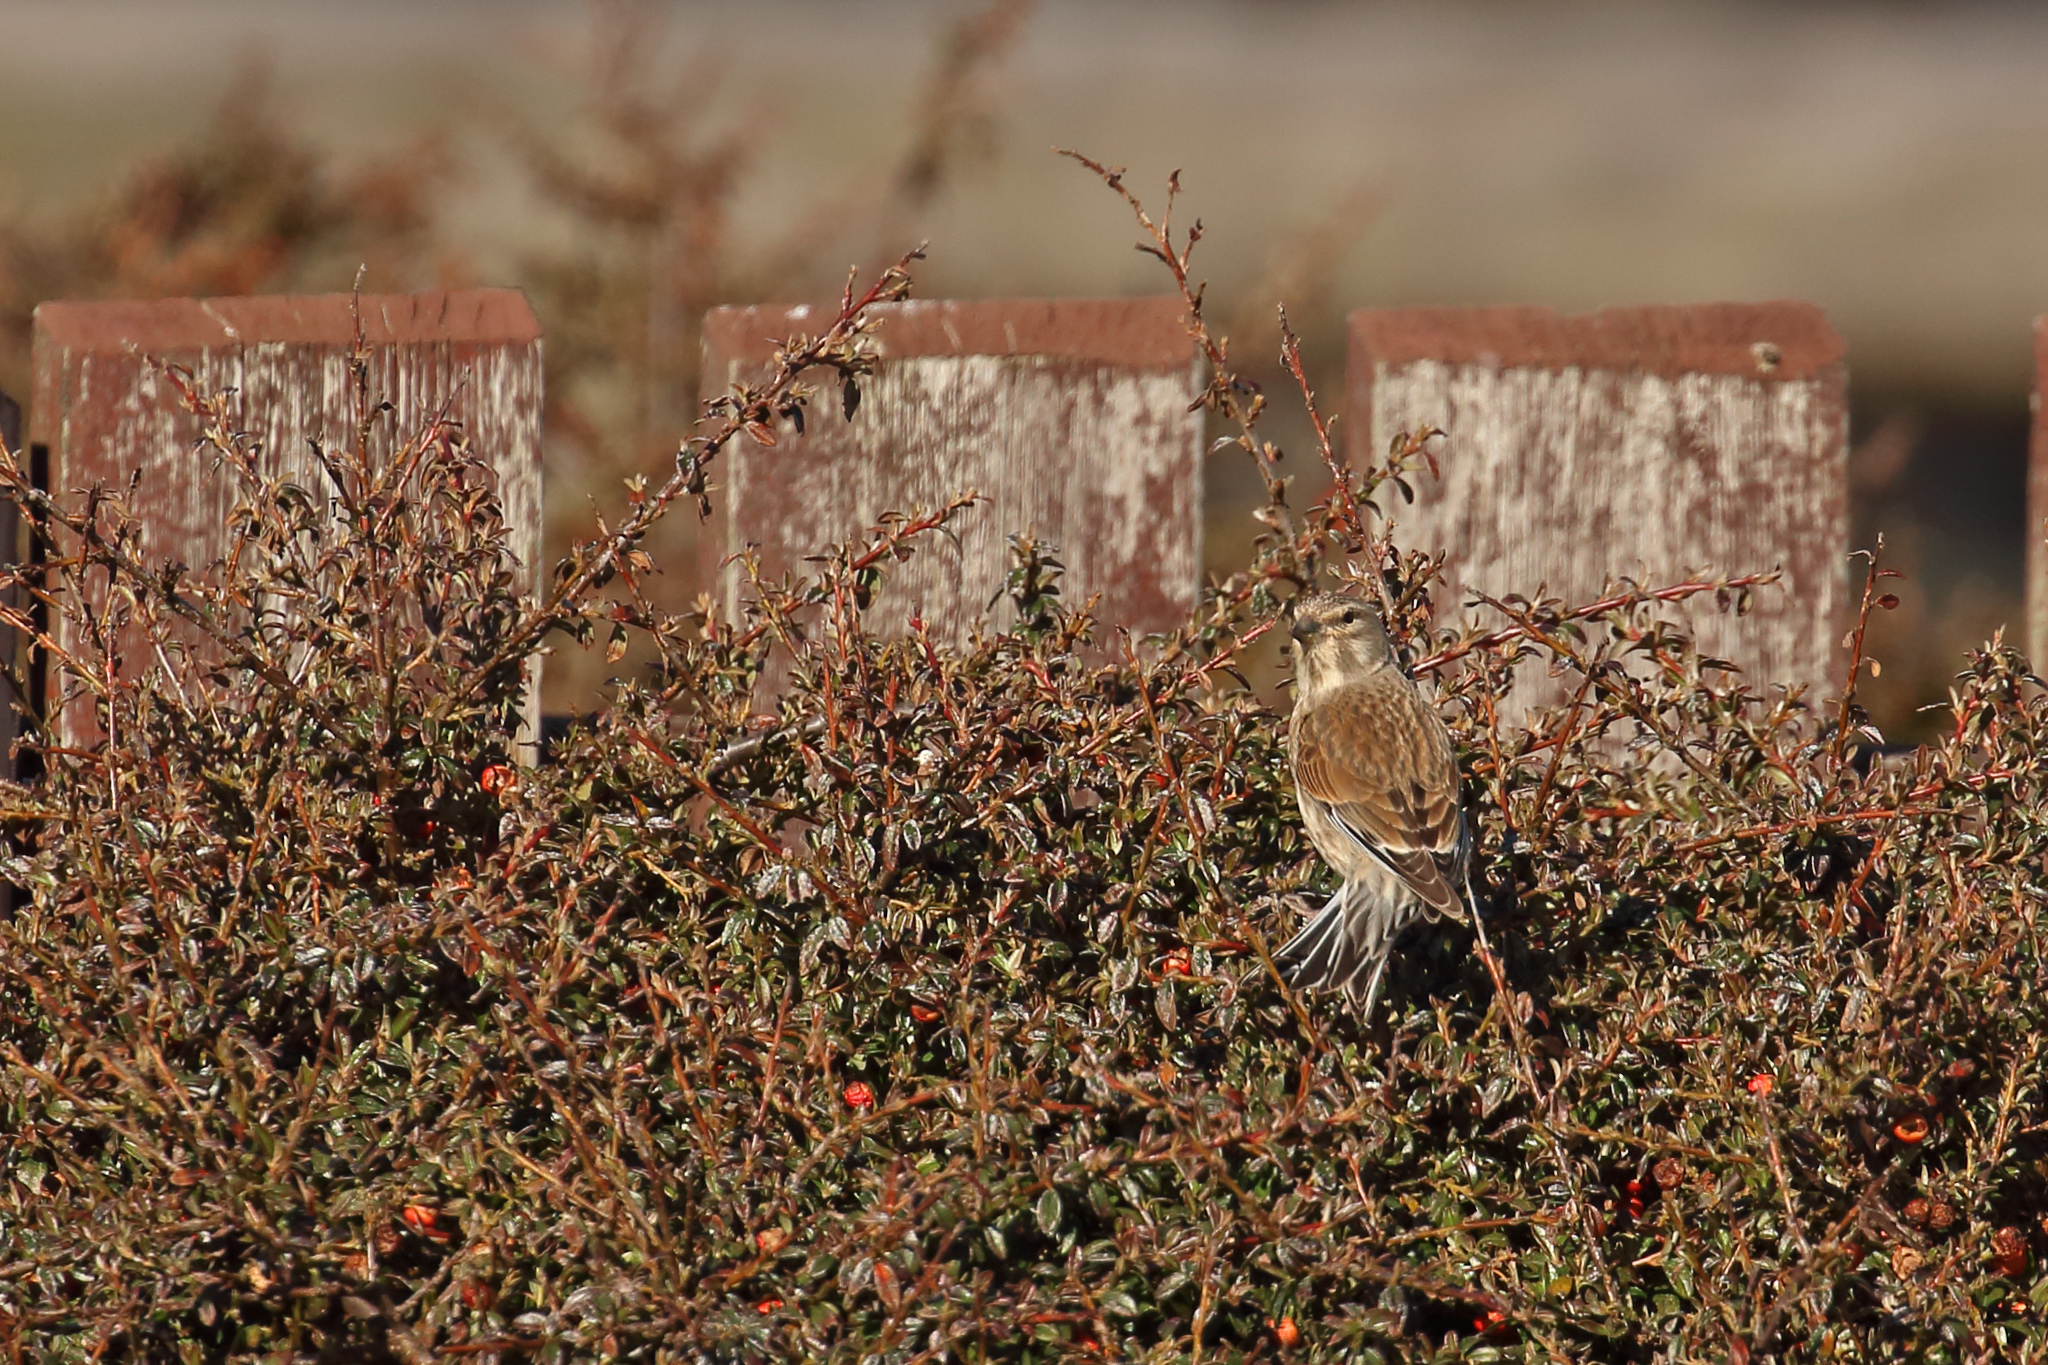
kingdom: Animalia
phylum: Chordata
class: Aves
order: Passeriformes
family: Fringillidae
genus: Linaria
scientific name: Linaria cannabina
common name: Common linnet
